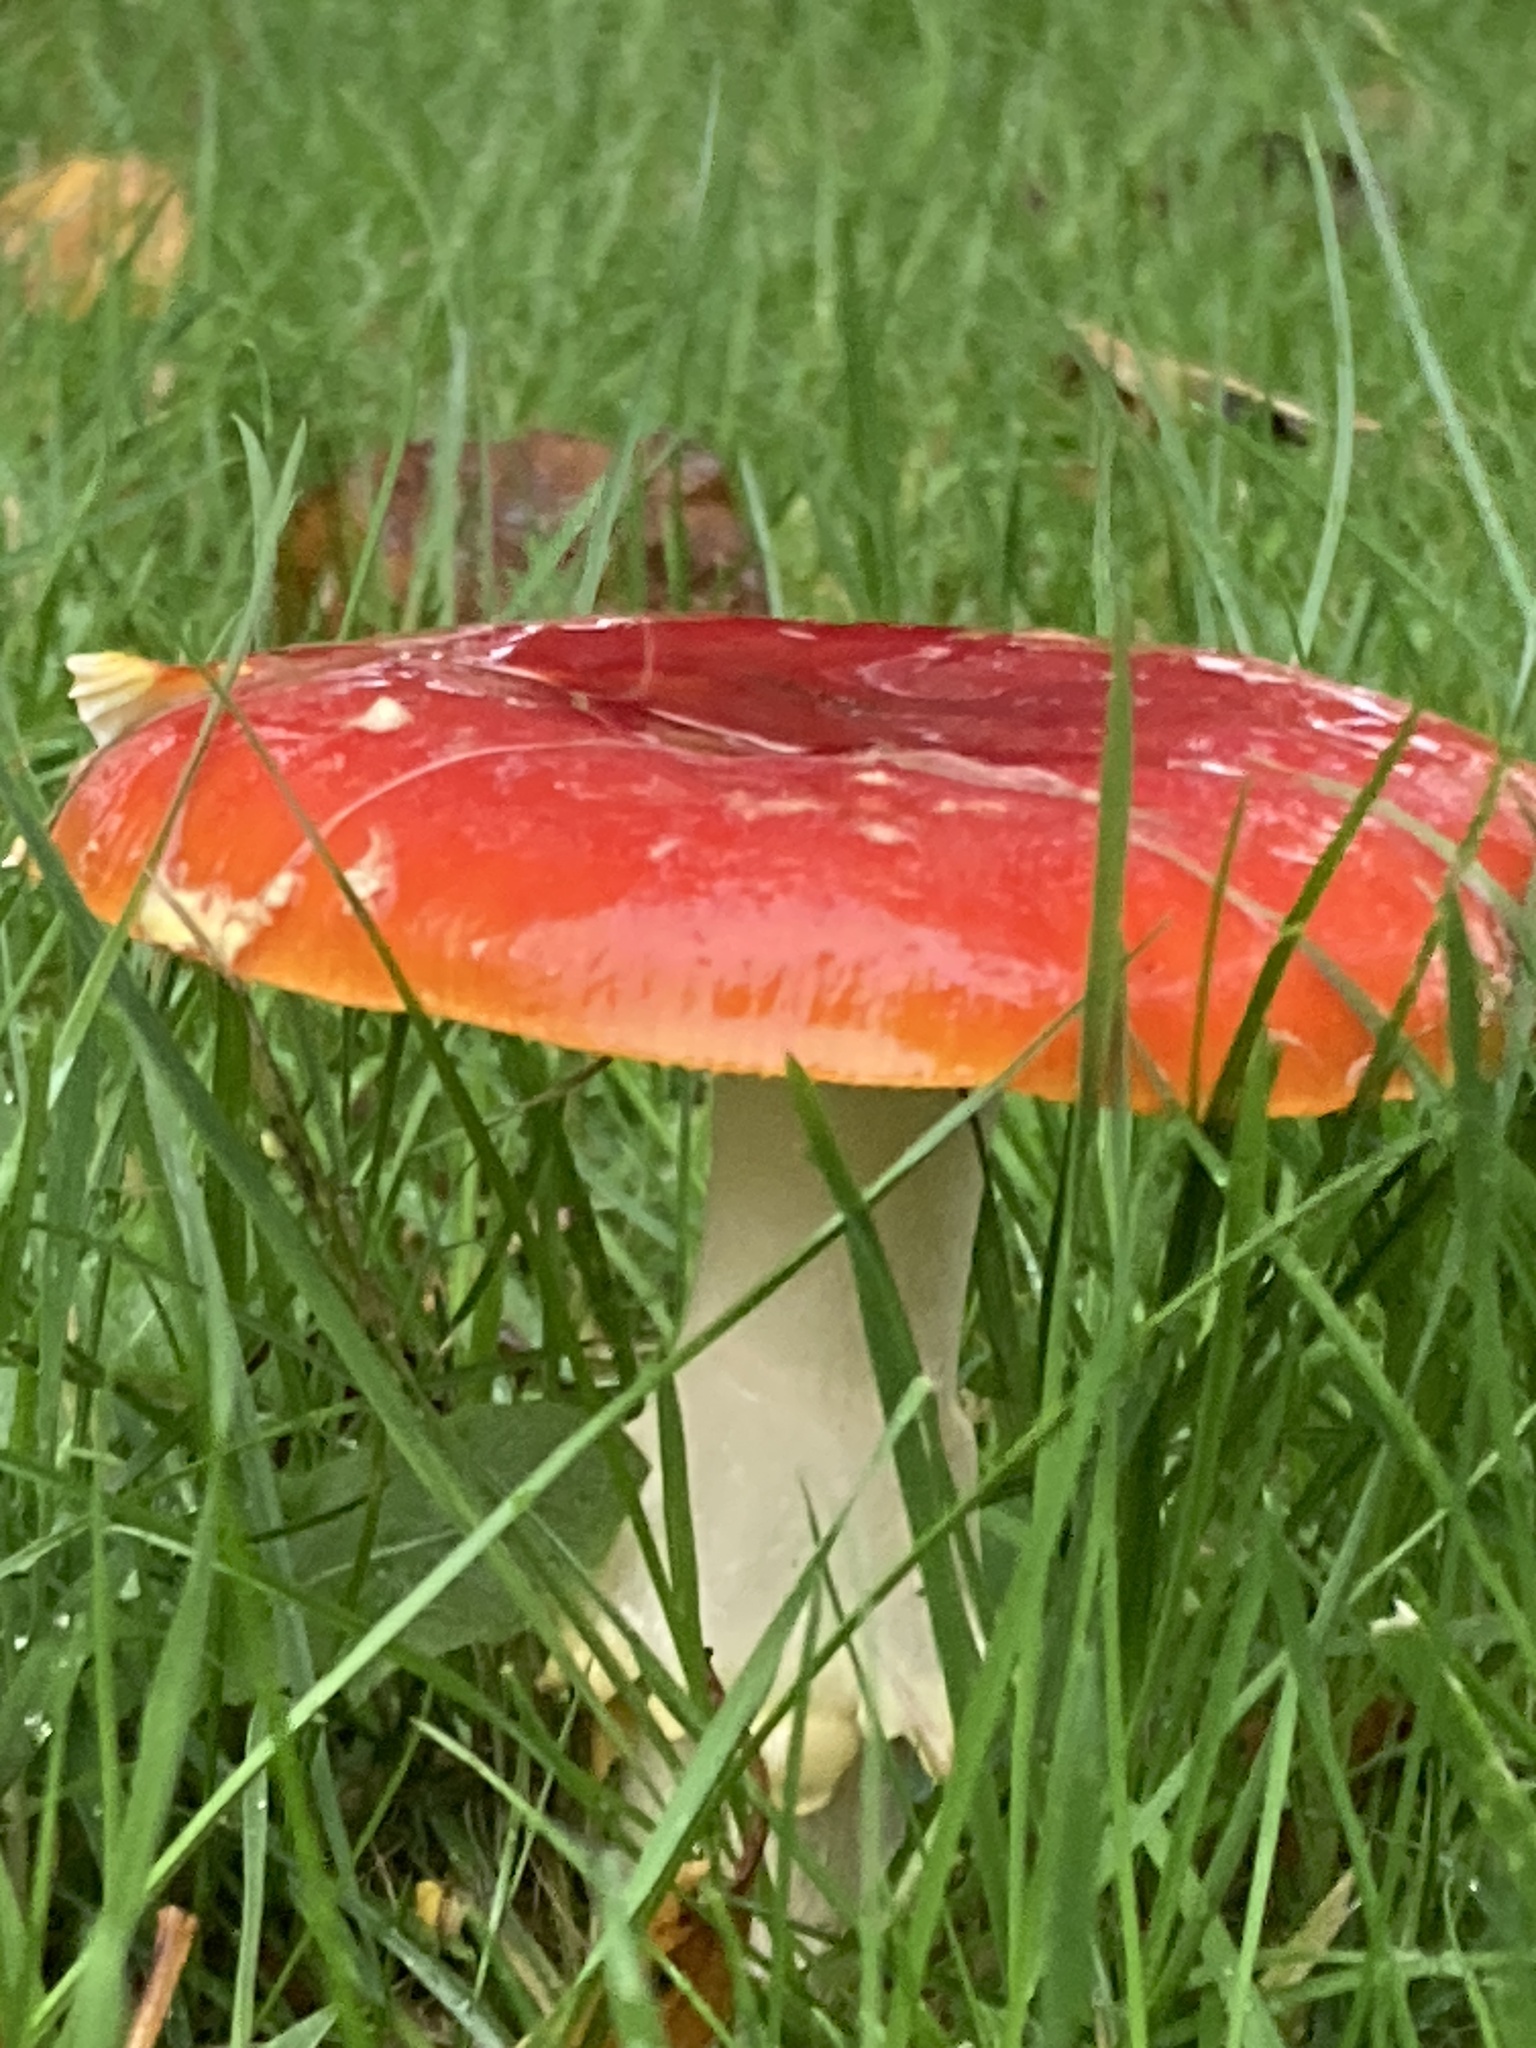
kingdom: Fungi
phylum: Basidiomycota
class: Agaricomycetes
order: Agaricales
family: Amanitaceae
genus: Amanita
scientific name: Amanita muscaria
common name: Fly agaric
